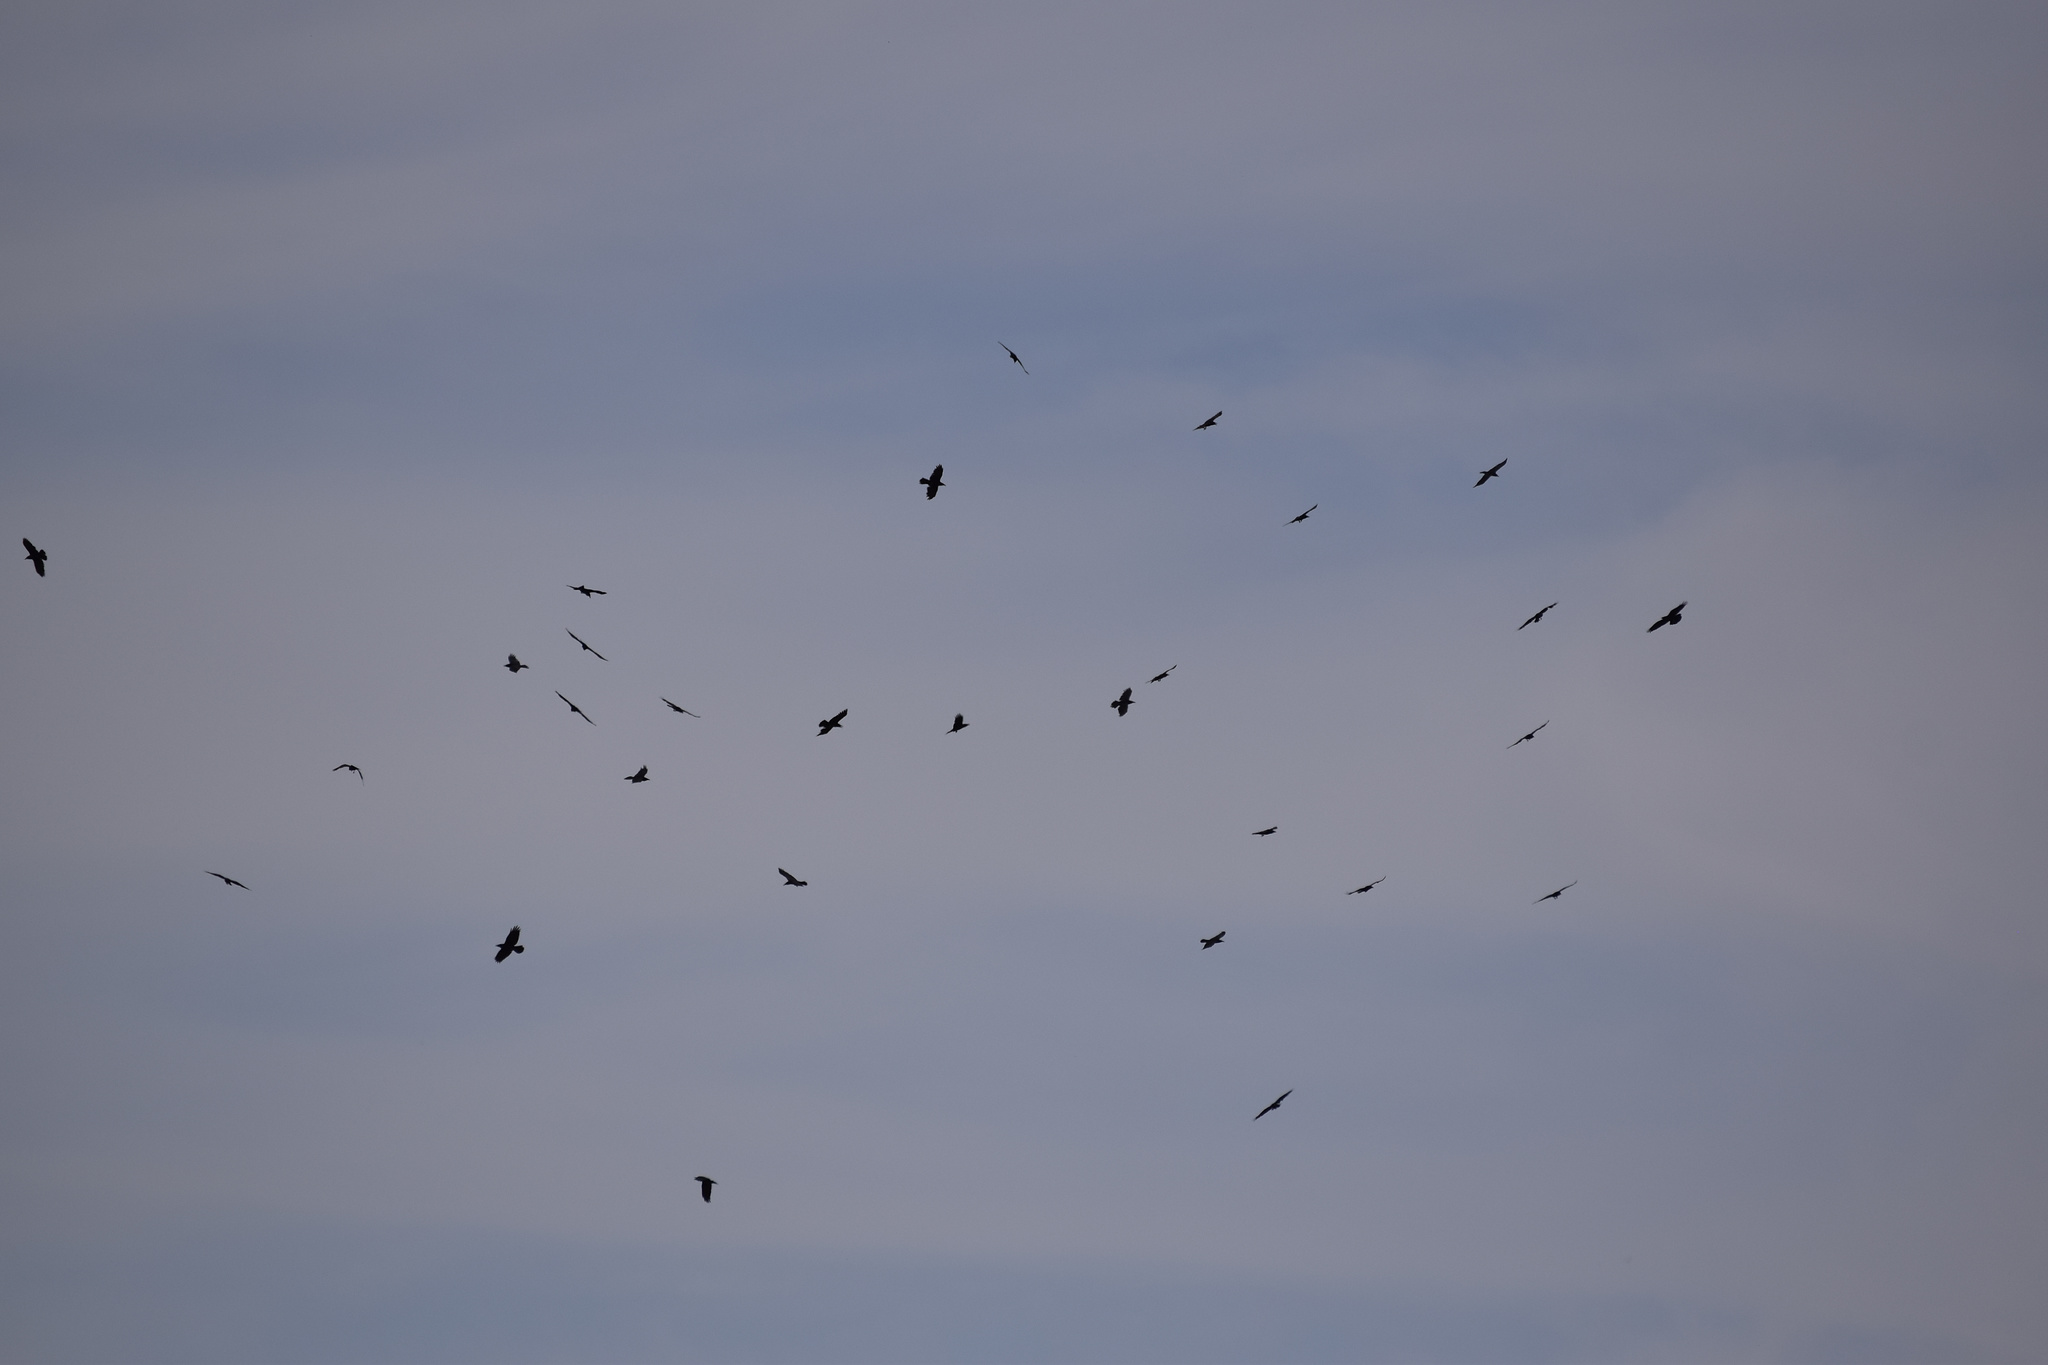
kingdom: Animalia
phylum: Chordata
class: Aves
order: Passeriformes
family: Corvidae
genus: Corvus
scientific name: Corvus corax
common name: Common raven
